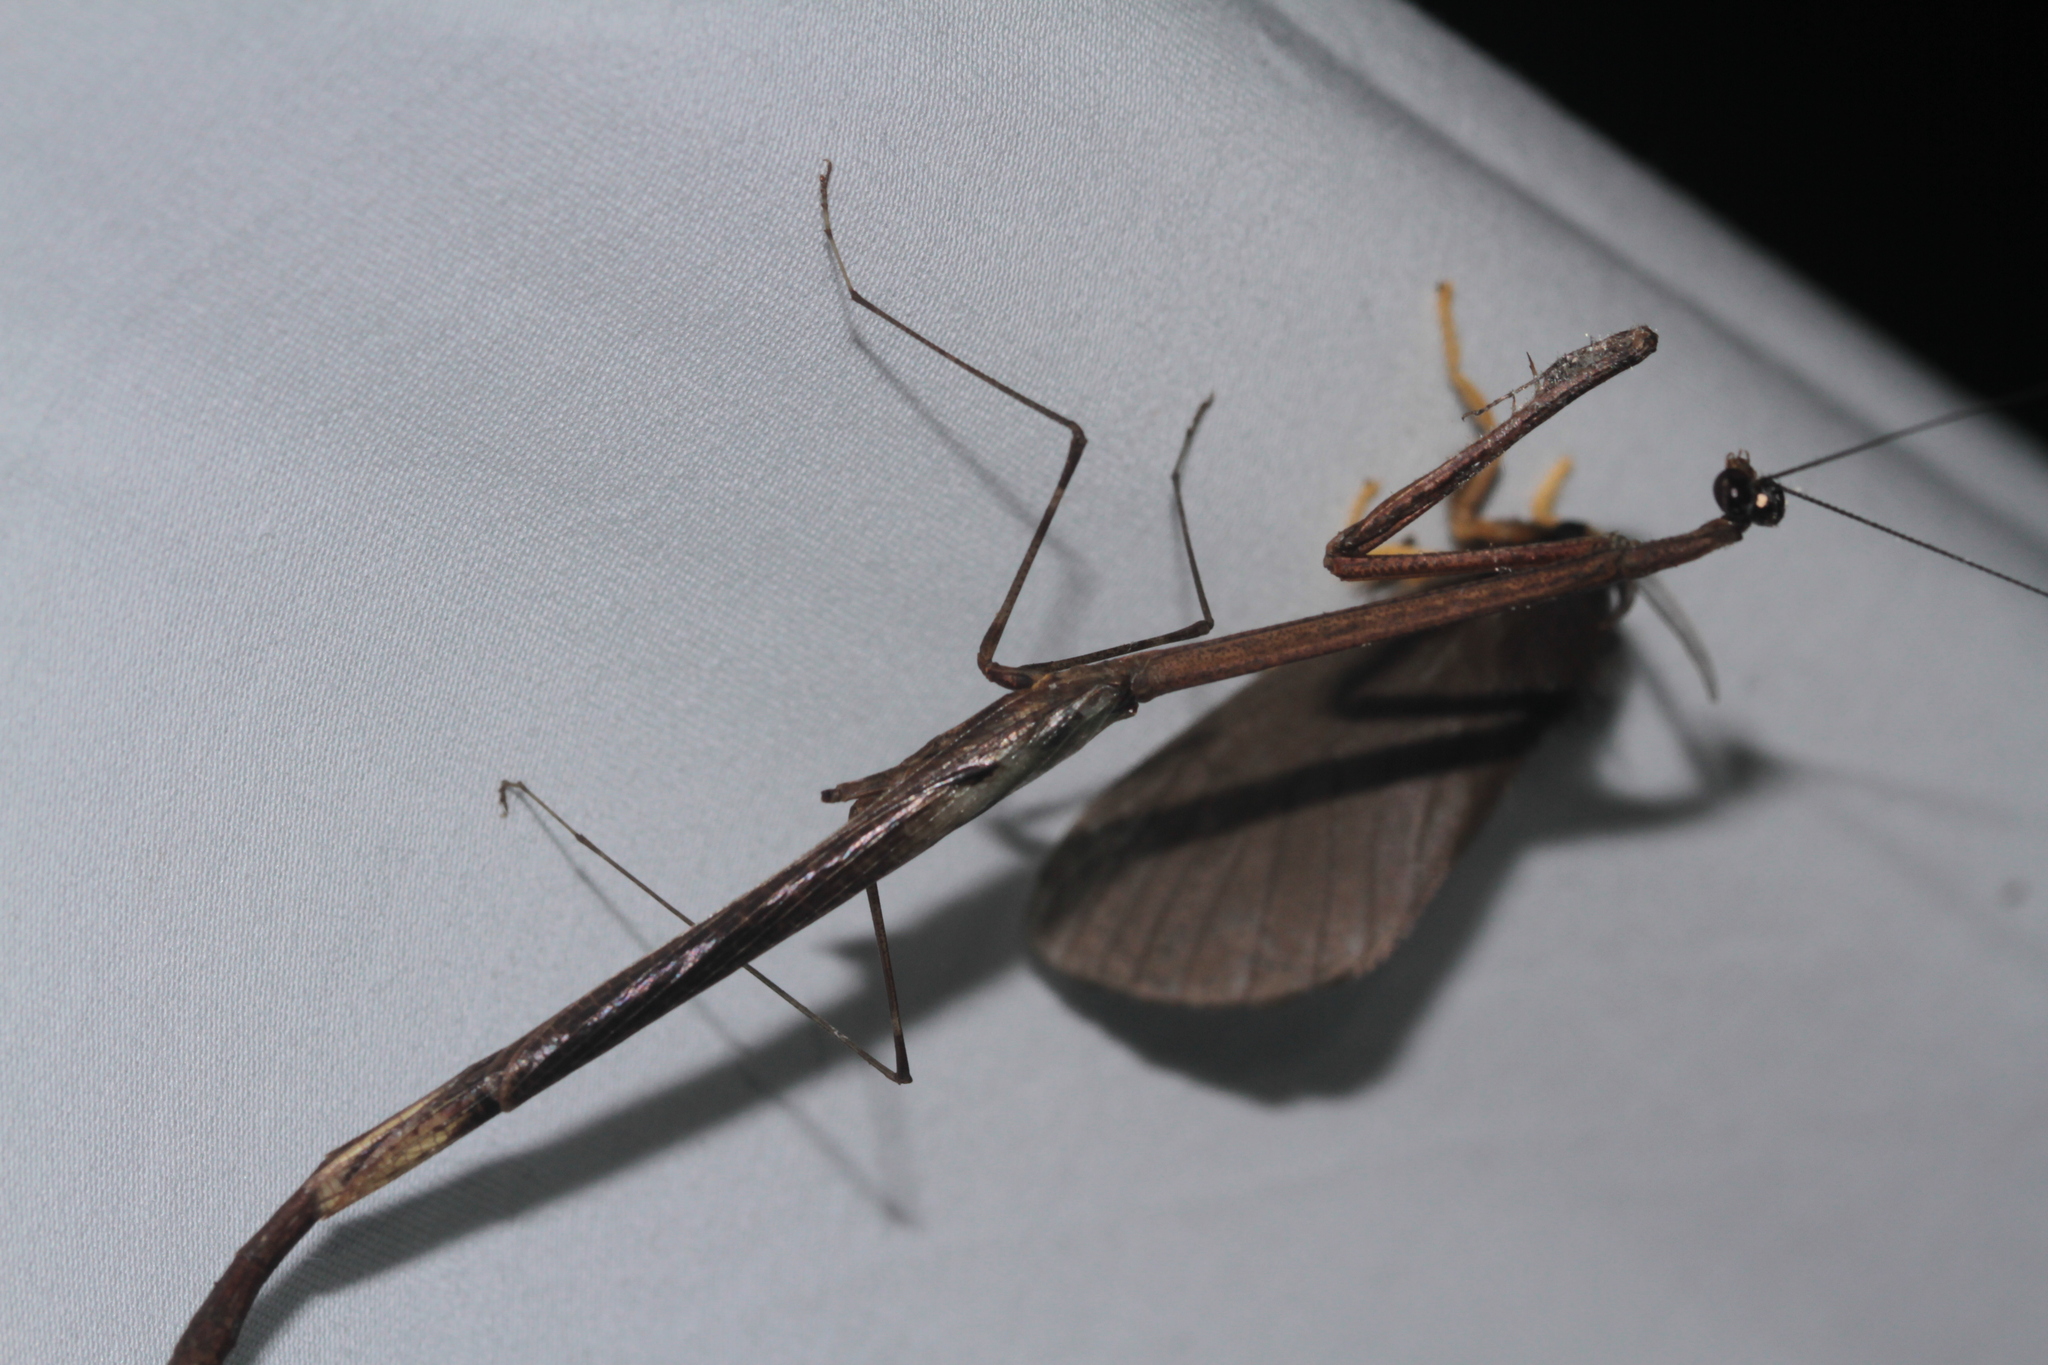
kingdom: Animalia
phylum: Arthropoda
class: Insecta
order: Mantodea
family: Angelidae
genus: Angela
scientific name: Angela guianensis
